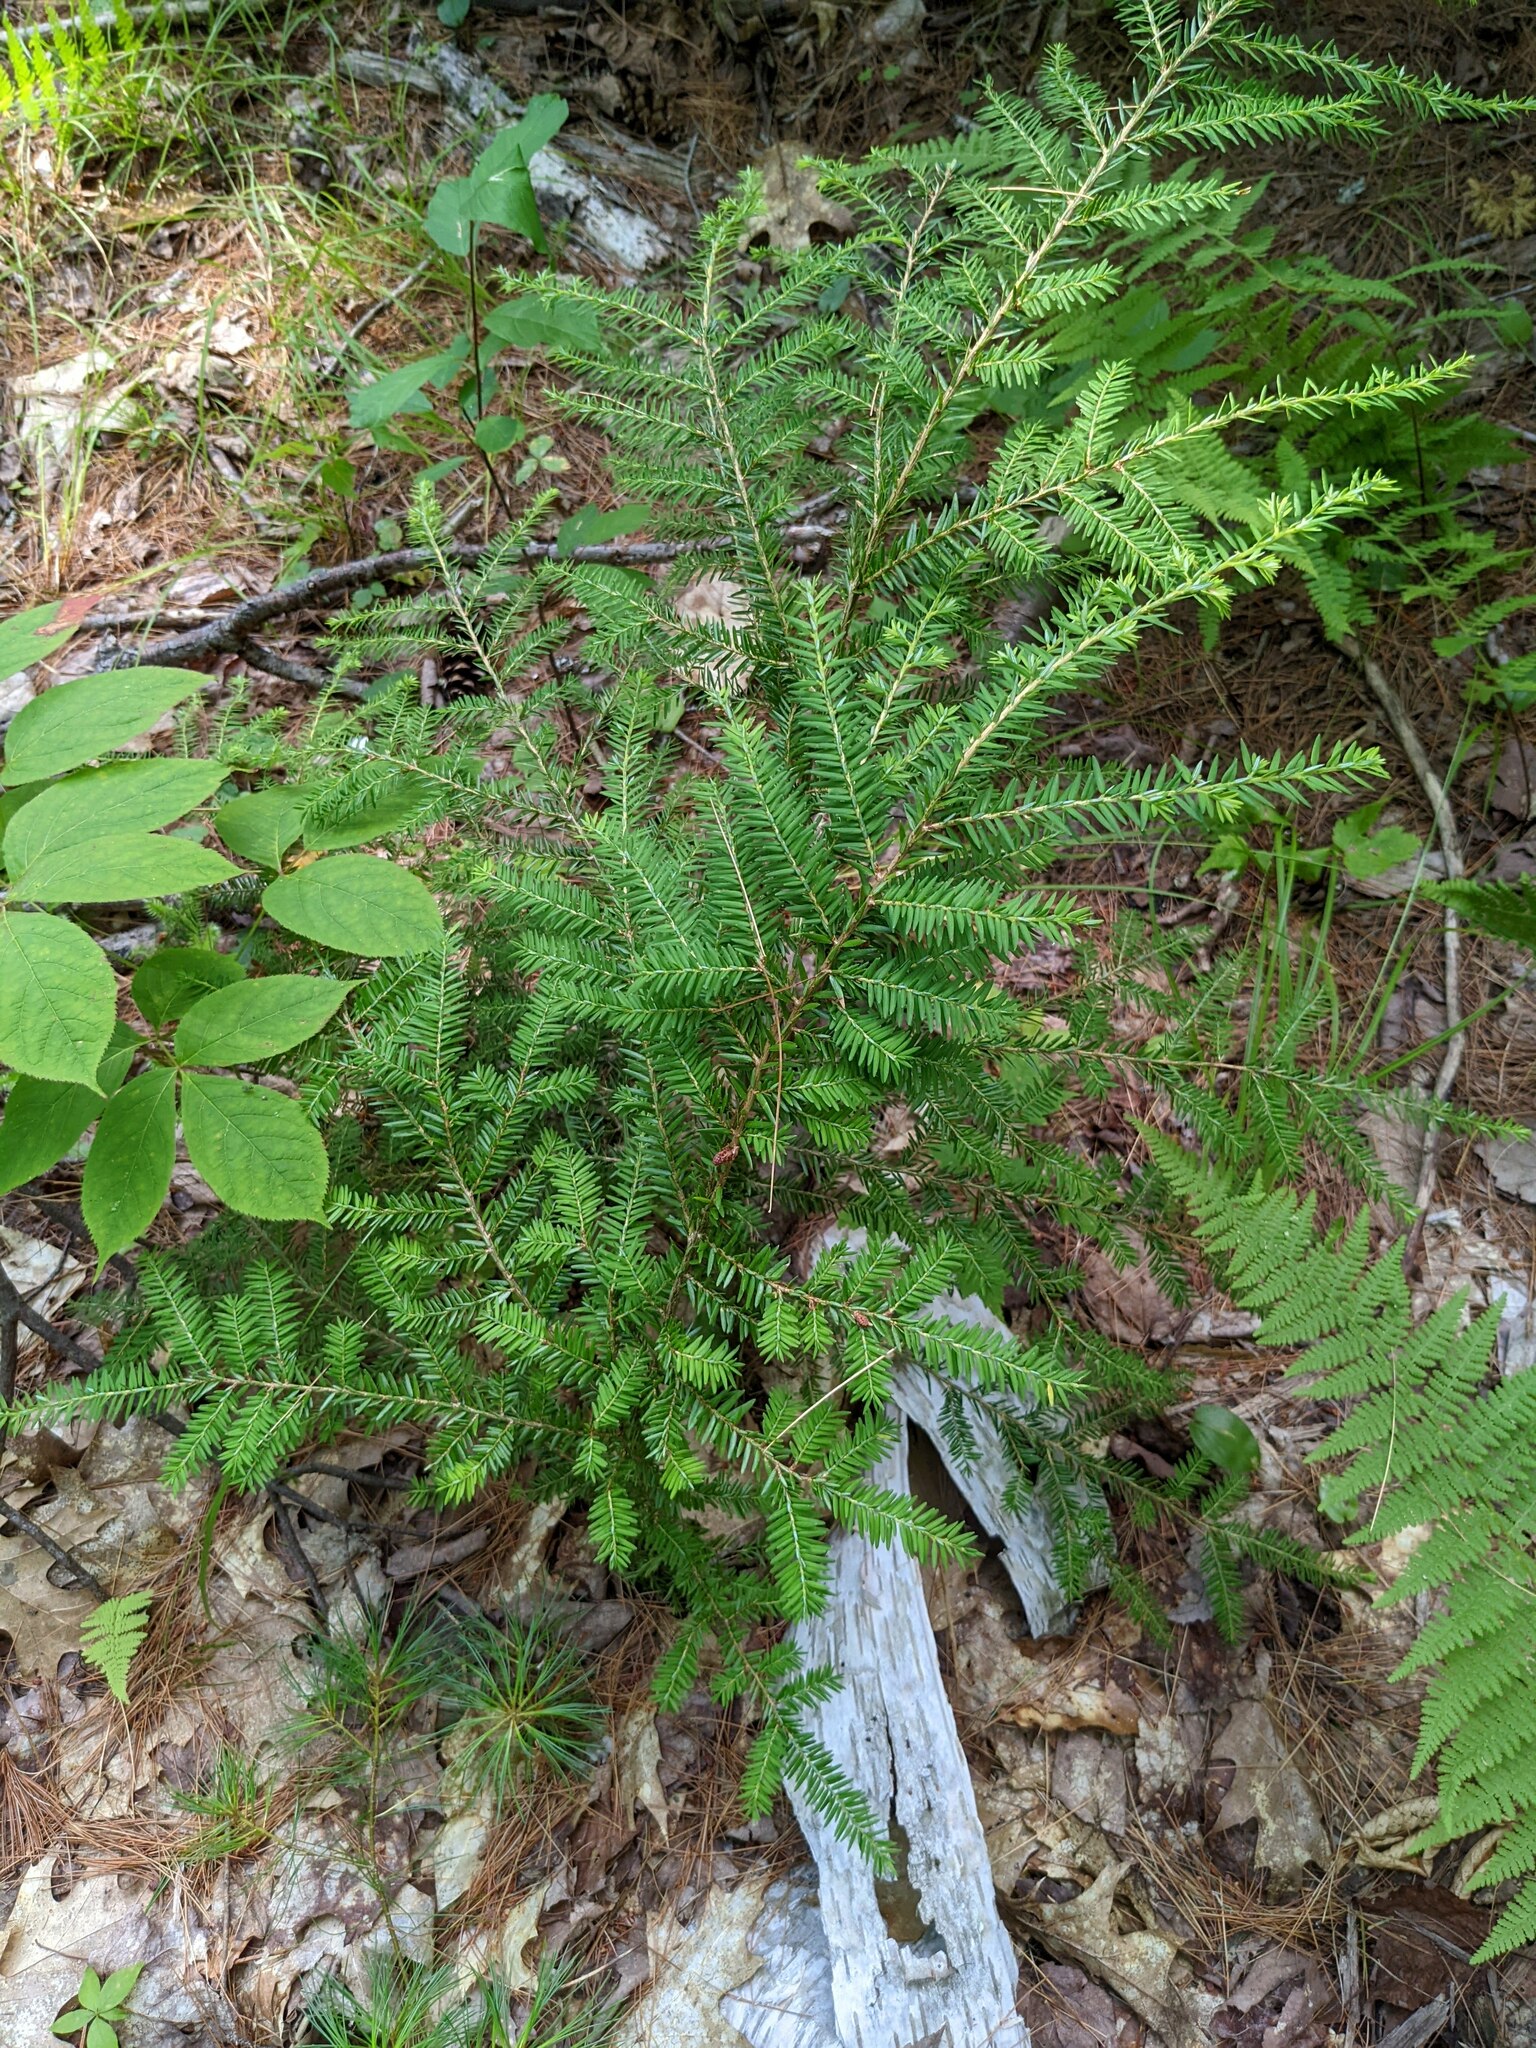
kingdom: Plantae
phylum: Tracheophyta
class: Pinopsida
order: Pinales
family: Pinaceae
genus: Tsuga
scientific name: Tsuga canadensis
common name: Eastern hemlock
